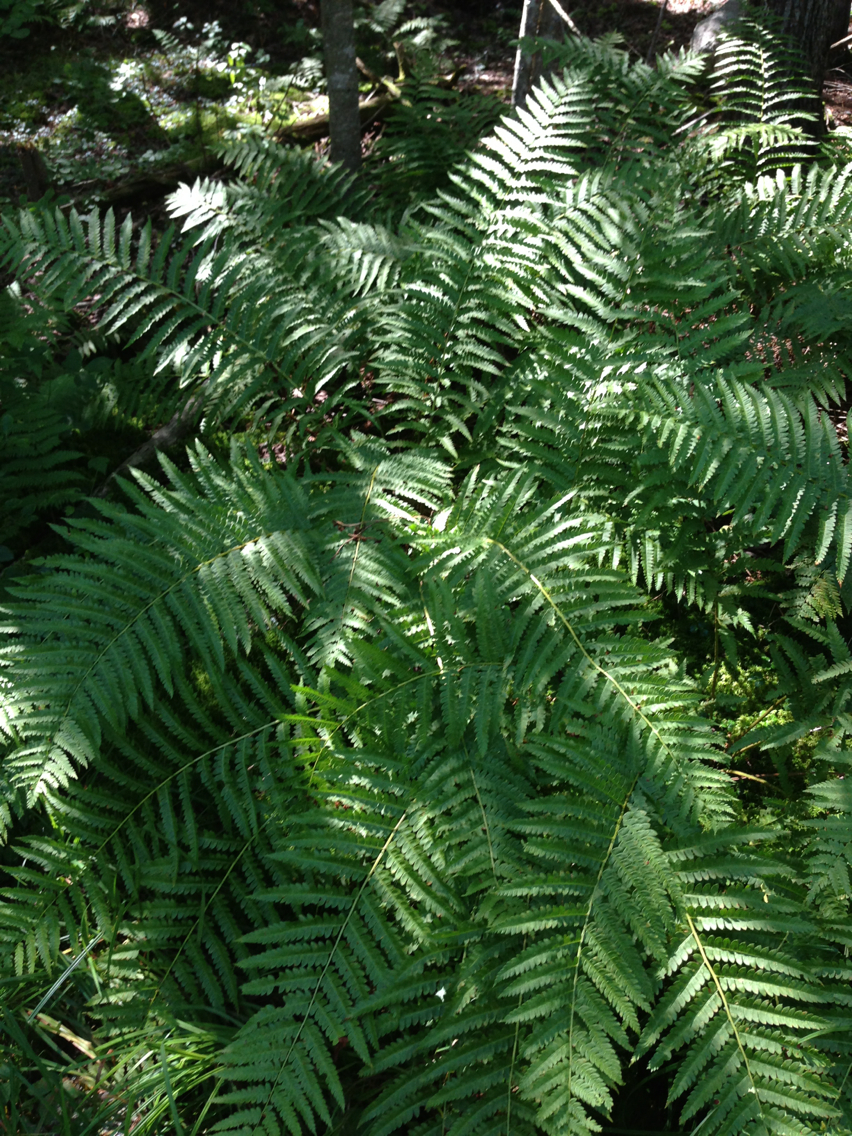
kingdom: Plantae
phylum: Tracheophyta
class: Polypodiopsida
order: Osmundales
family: Osmundaceae
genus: Osmundastrum
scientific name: Osmundastrum cinnamomeum
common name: Cinnamon fern
